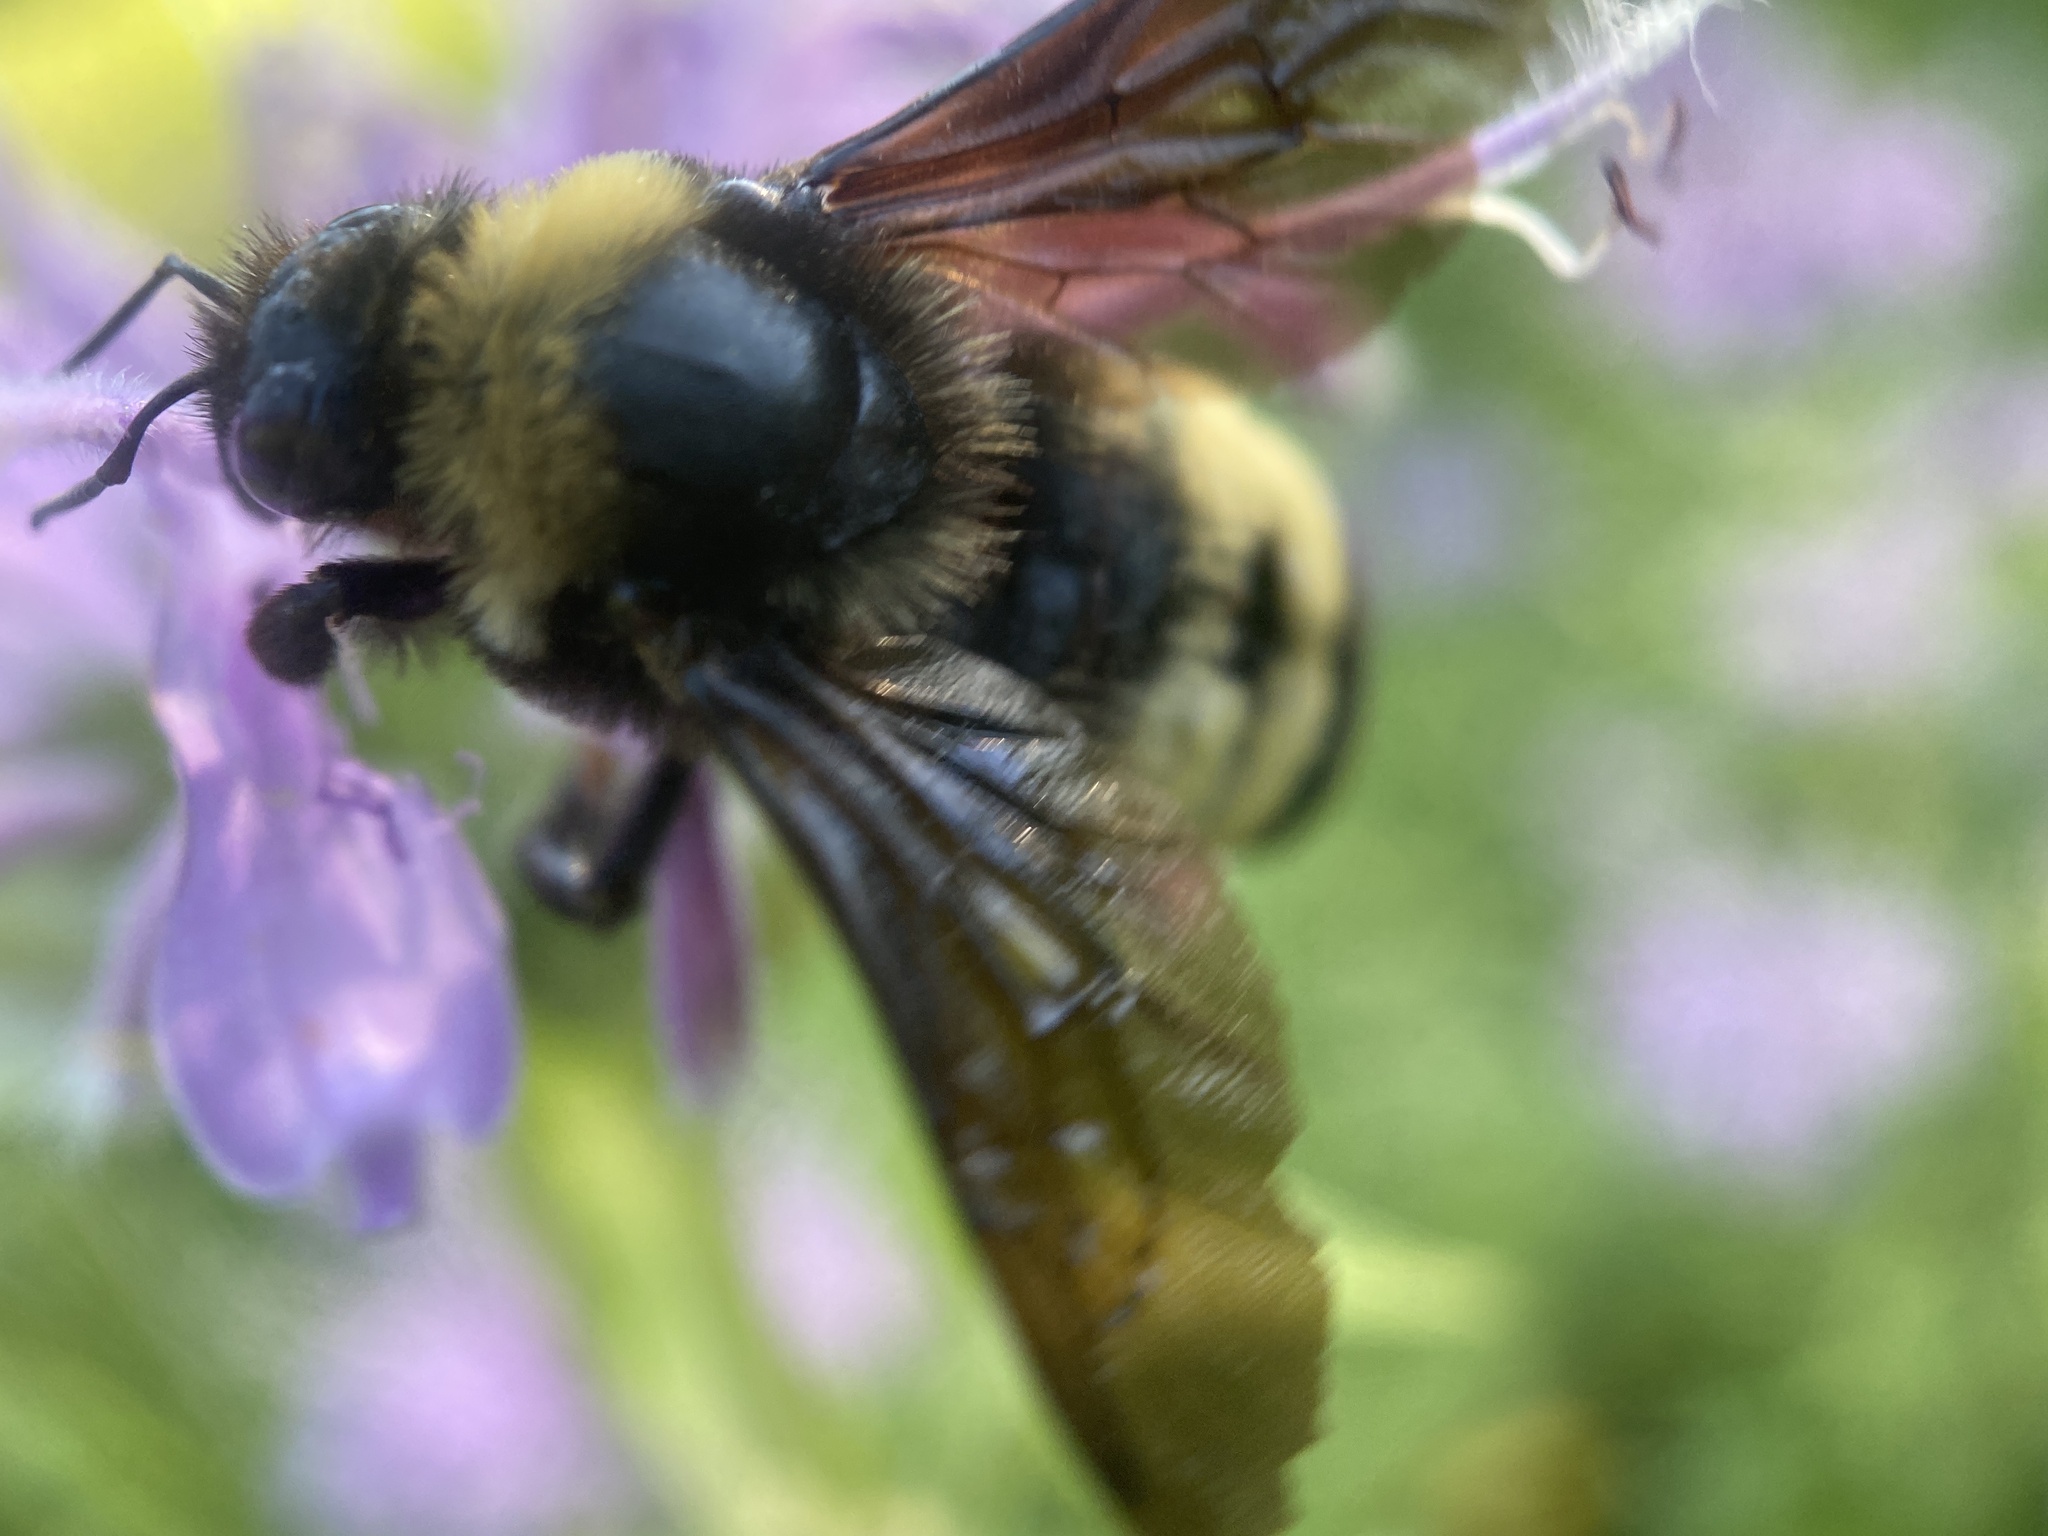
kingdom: Animalia
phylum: Arthropoda
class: Insecta
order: Hymenoptera
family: Apidae
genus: Bombus
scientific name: Bombus auricomus
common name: Black and gold bumble bee
